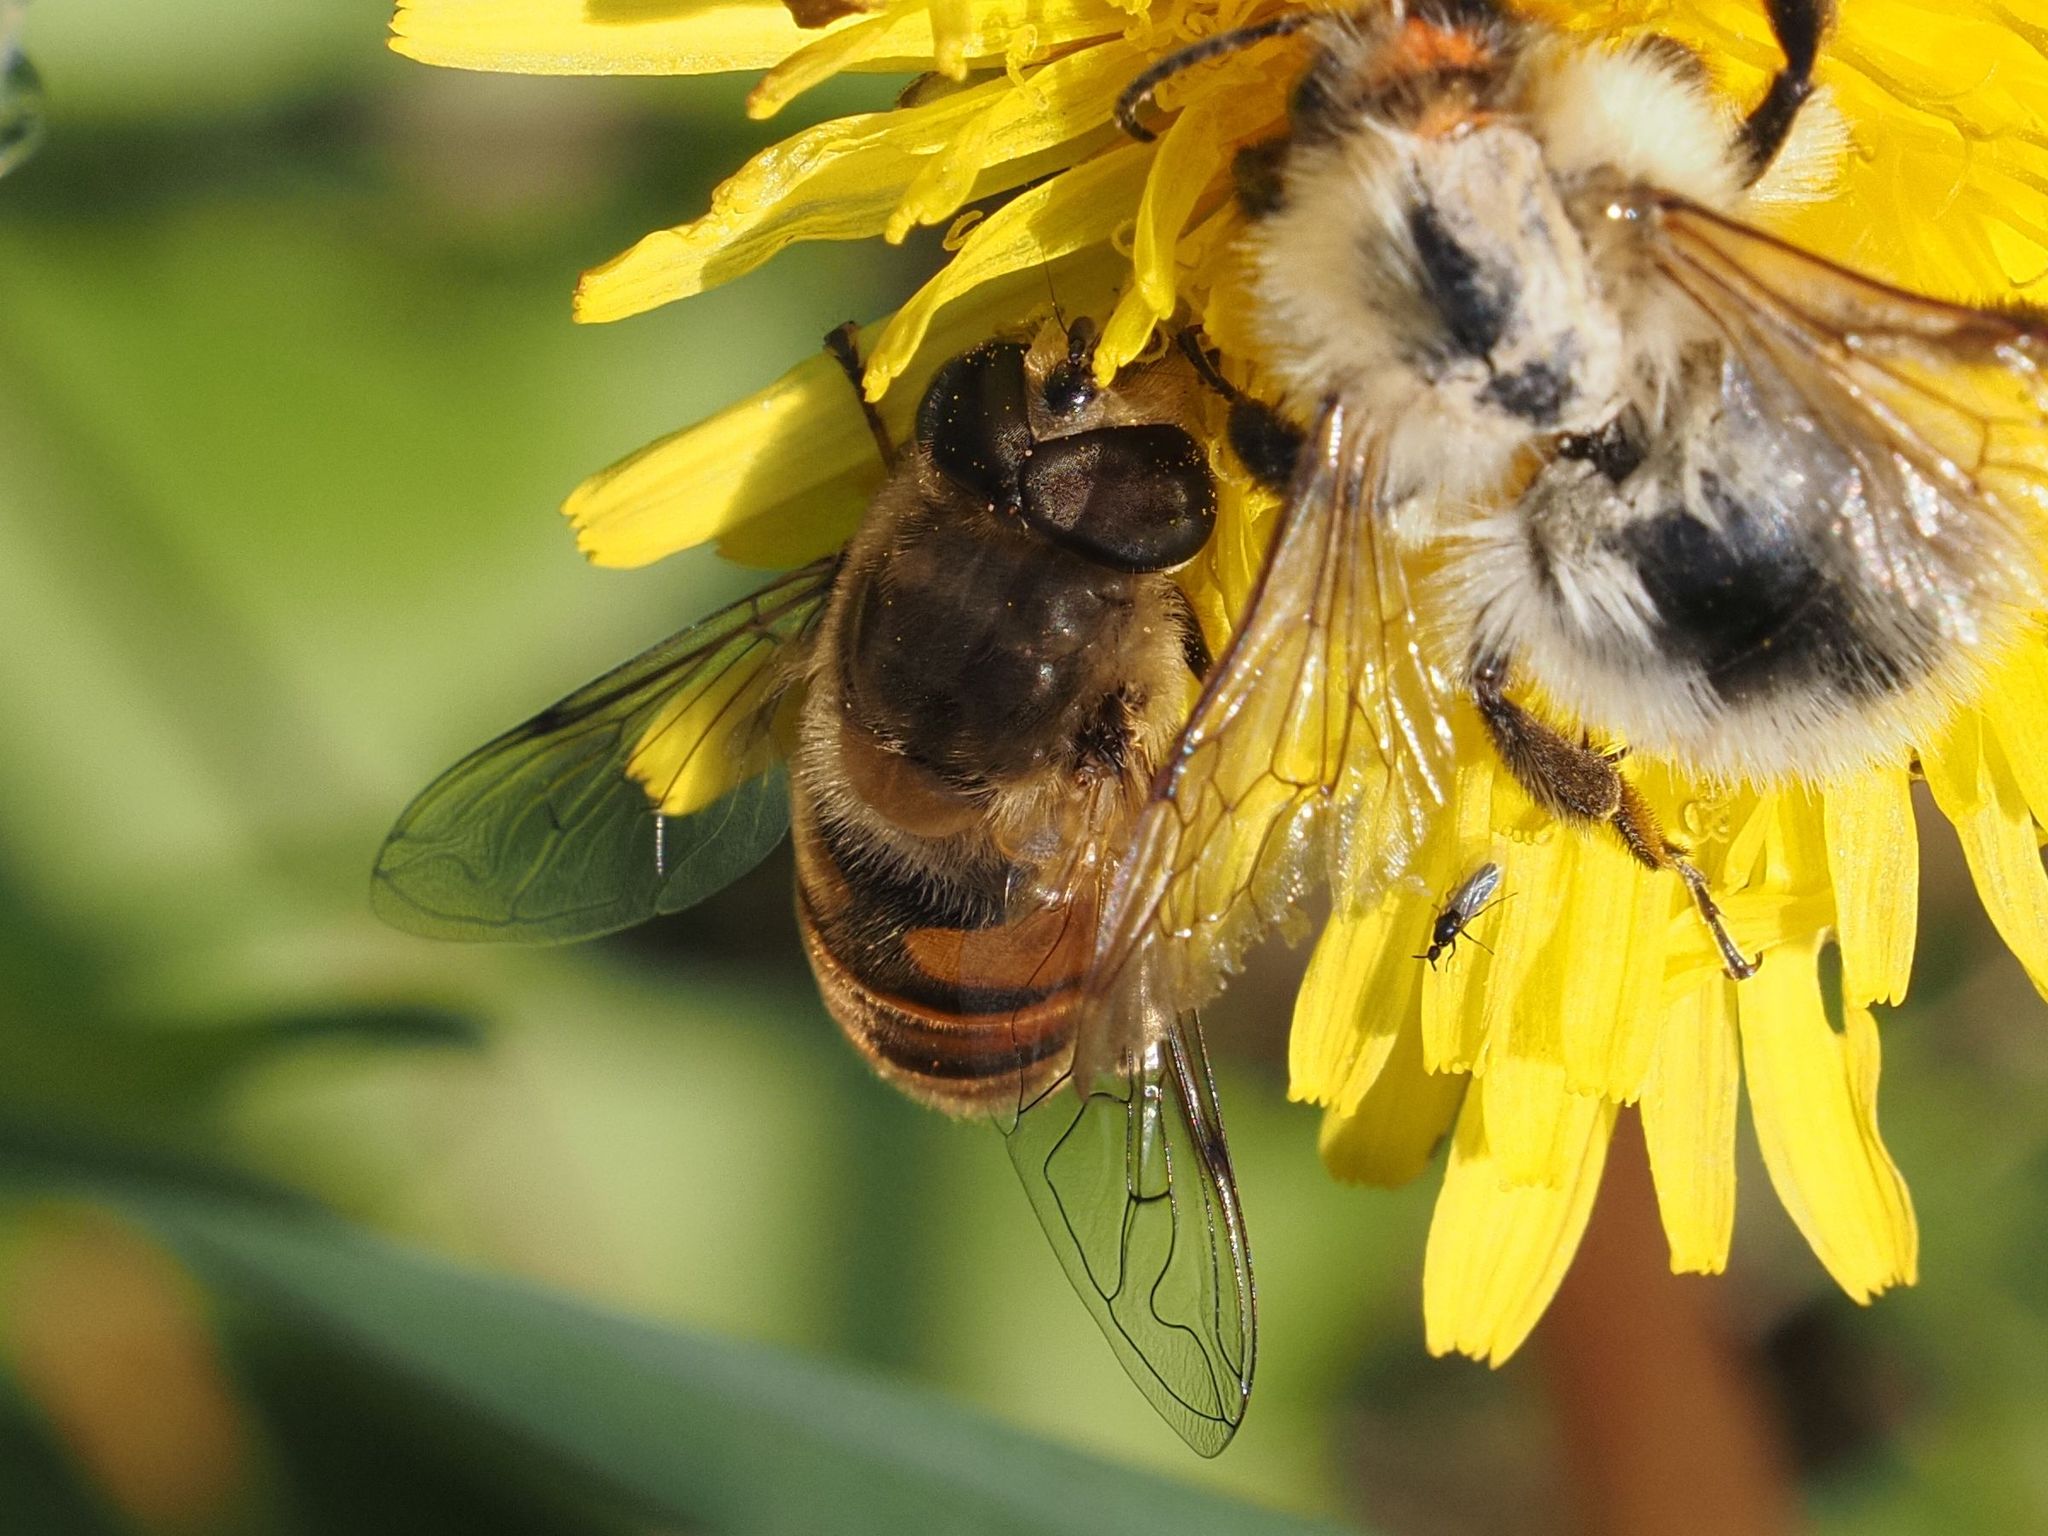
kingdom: Animalia
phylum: Arthropoda
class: Insecta
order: Diptera
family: Syrphidae
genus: Eristalis
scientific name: Eristalis tenax
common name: Drone fly
